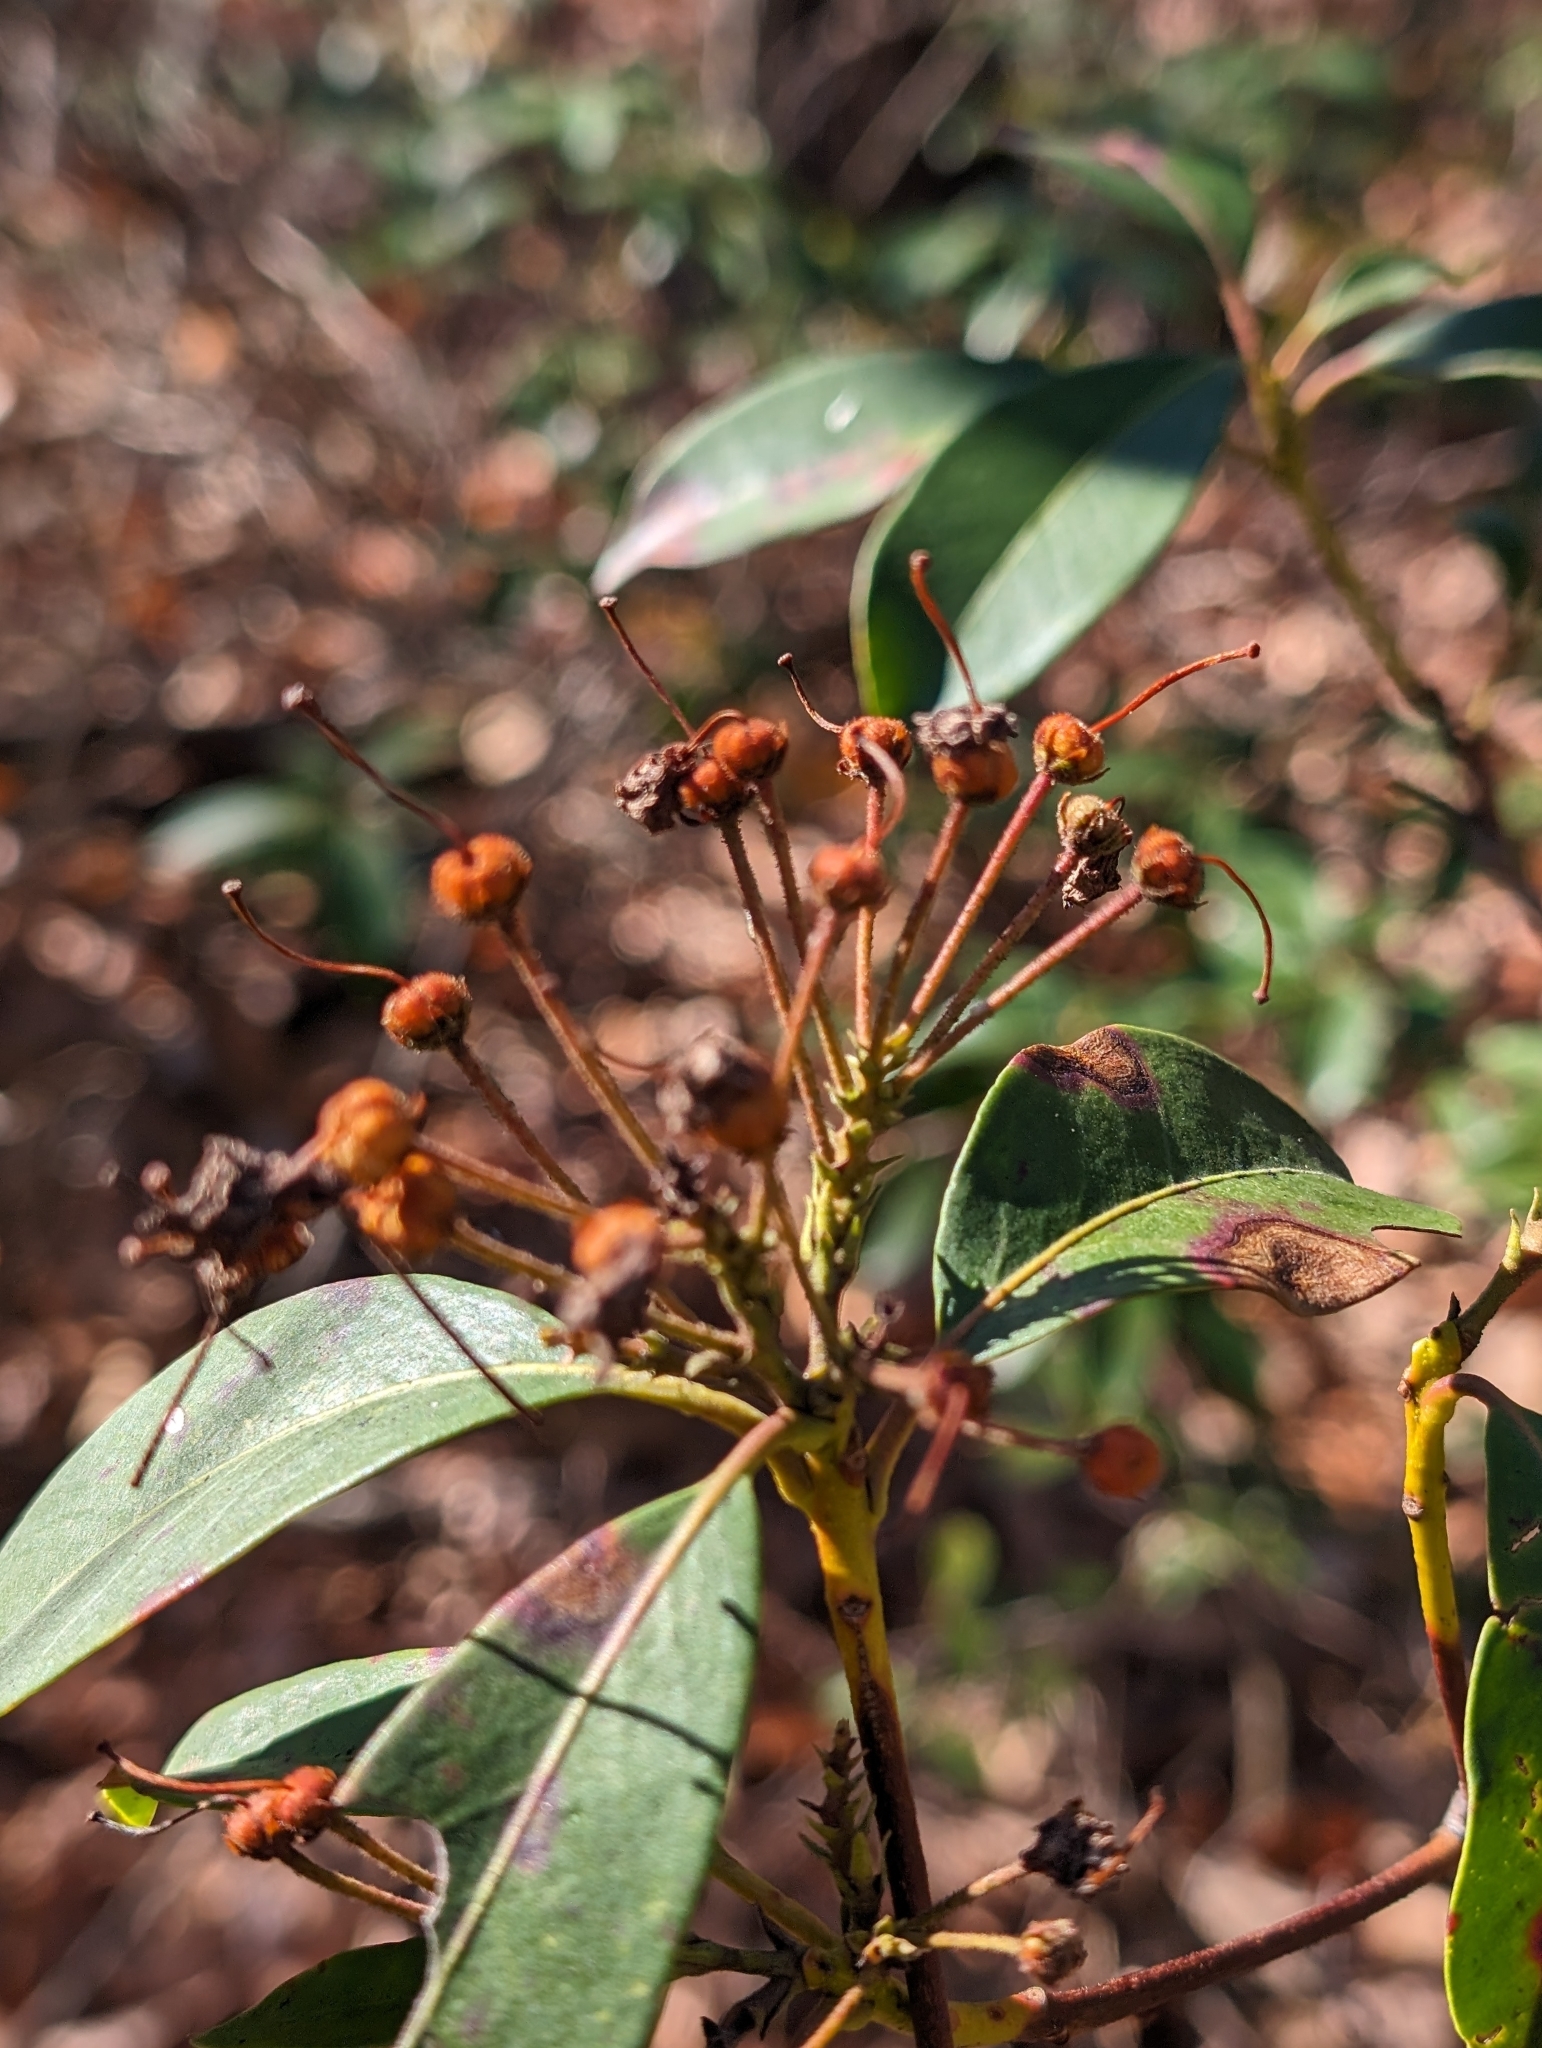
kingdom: Plantae
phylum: Tracheophyta
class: Magnoliopsida
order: Ericales
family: Ericaceae
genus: Kalmia
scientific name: Kalmia latifolia
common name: Mountain-laurel
